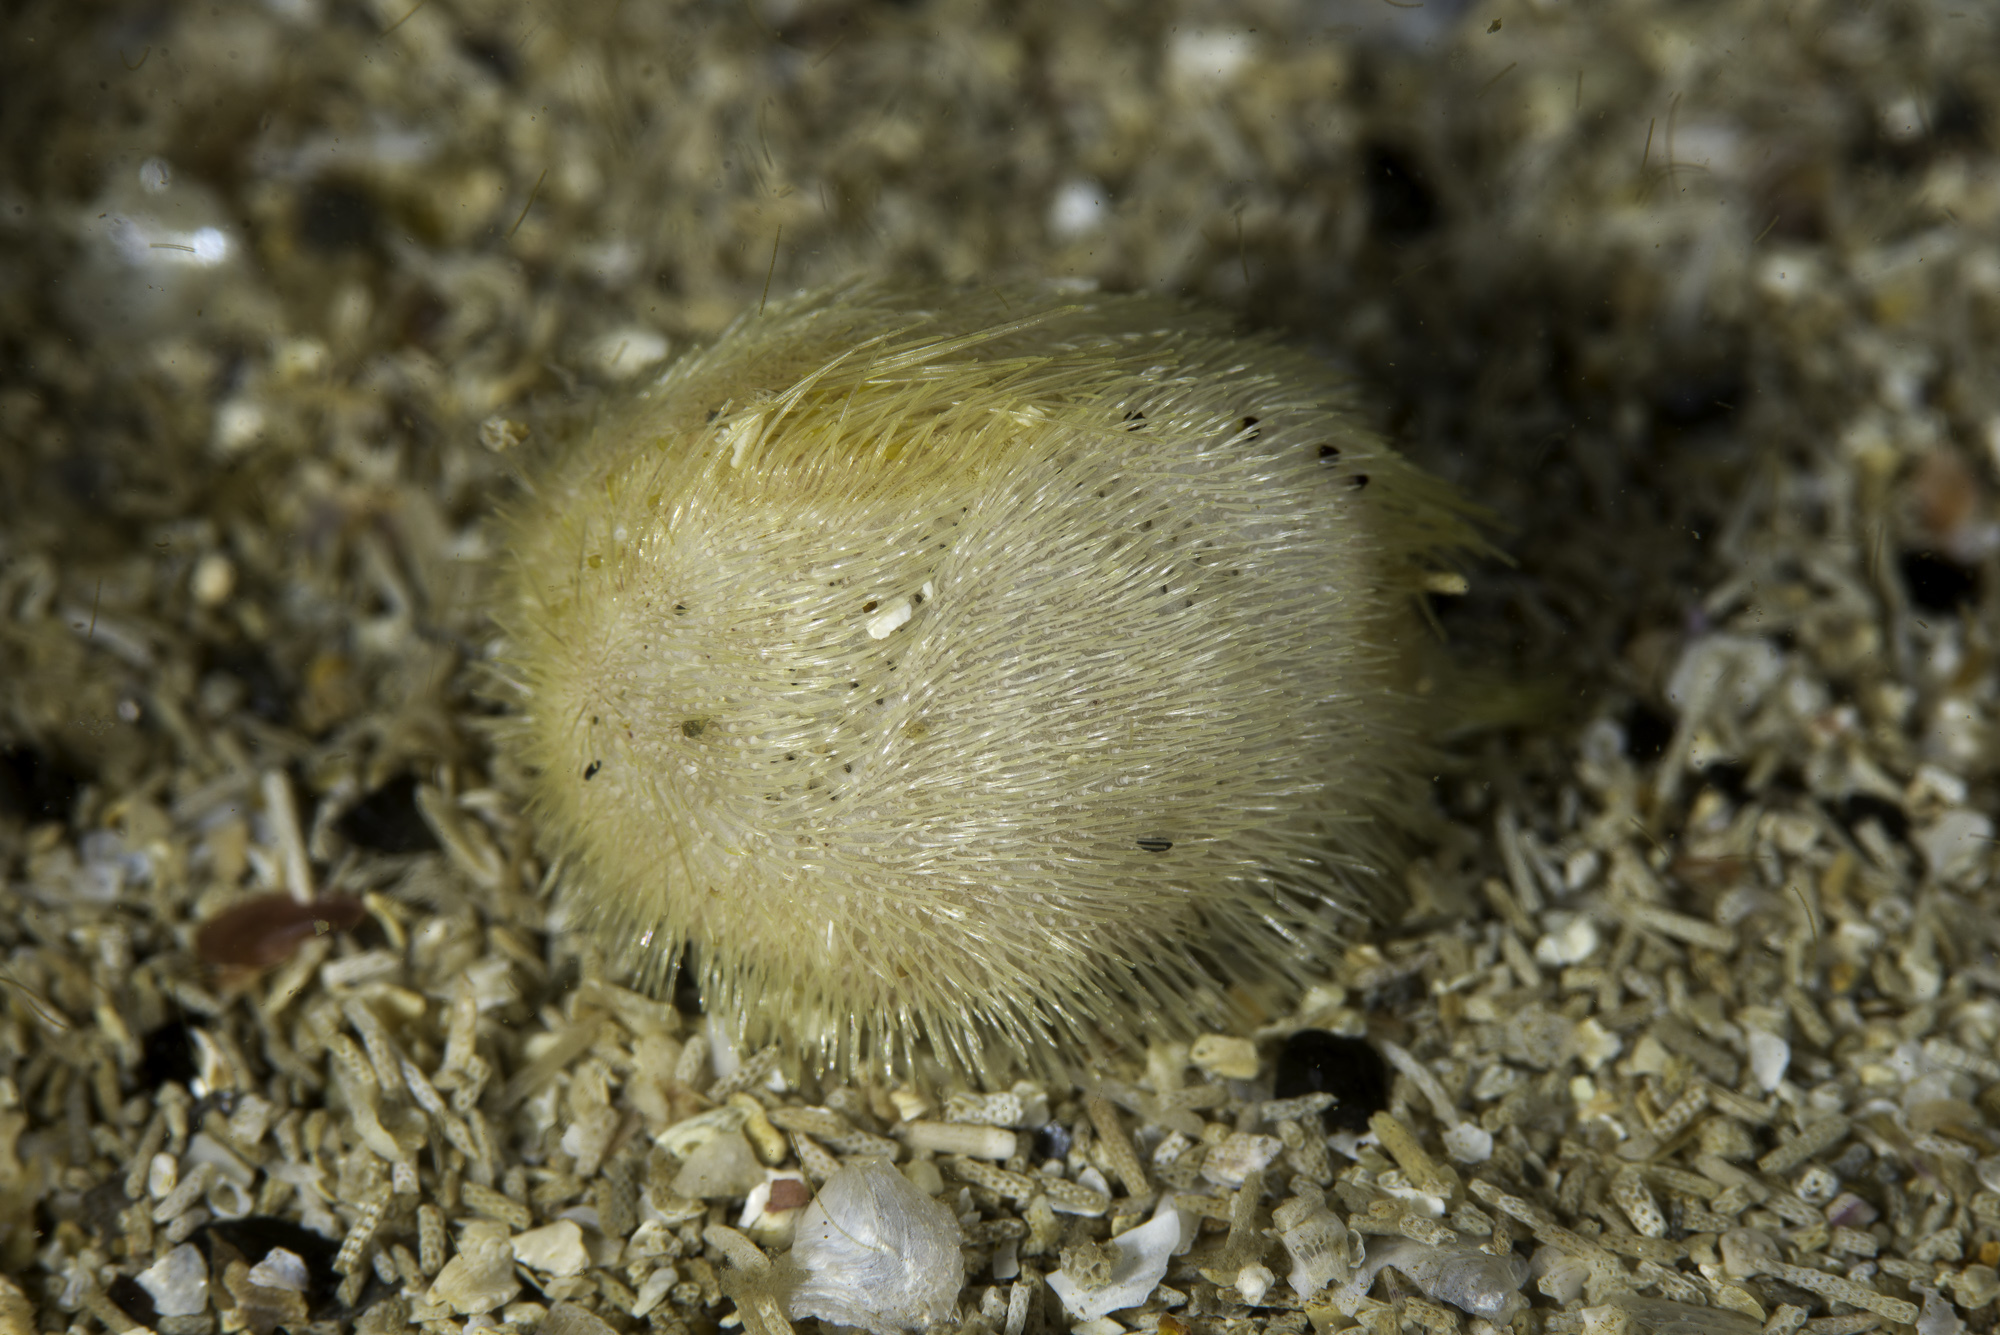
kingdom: Animalia
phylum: Echinodermata
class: Echinoidea
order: Spatangoida
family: Loveniidae
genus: Echinocardium
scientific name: Echinocardium flavescens
